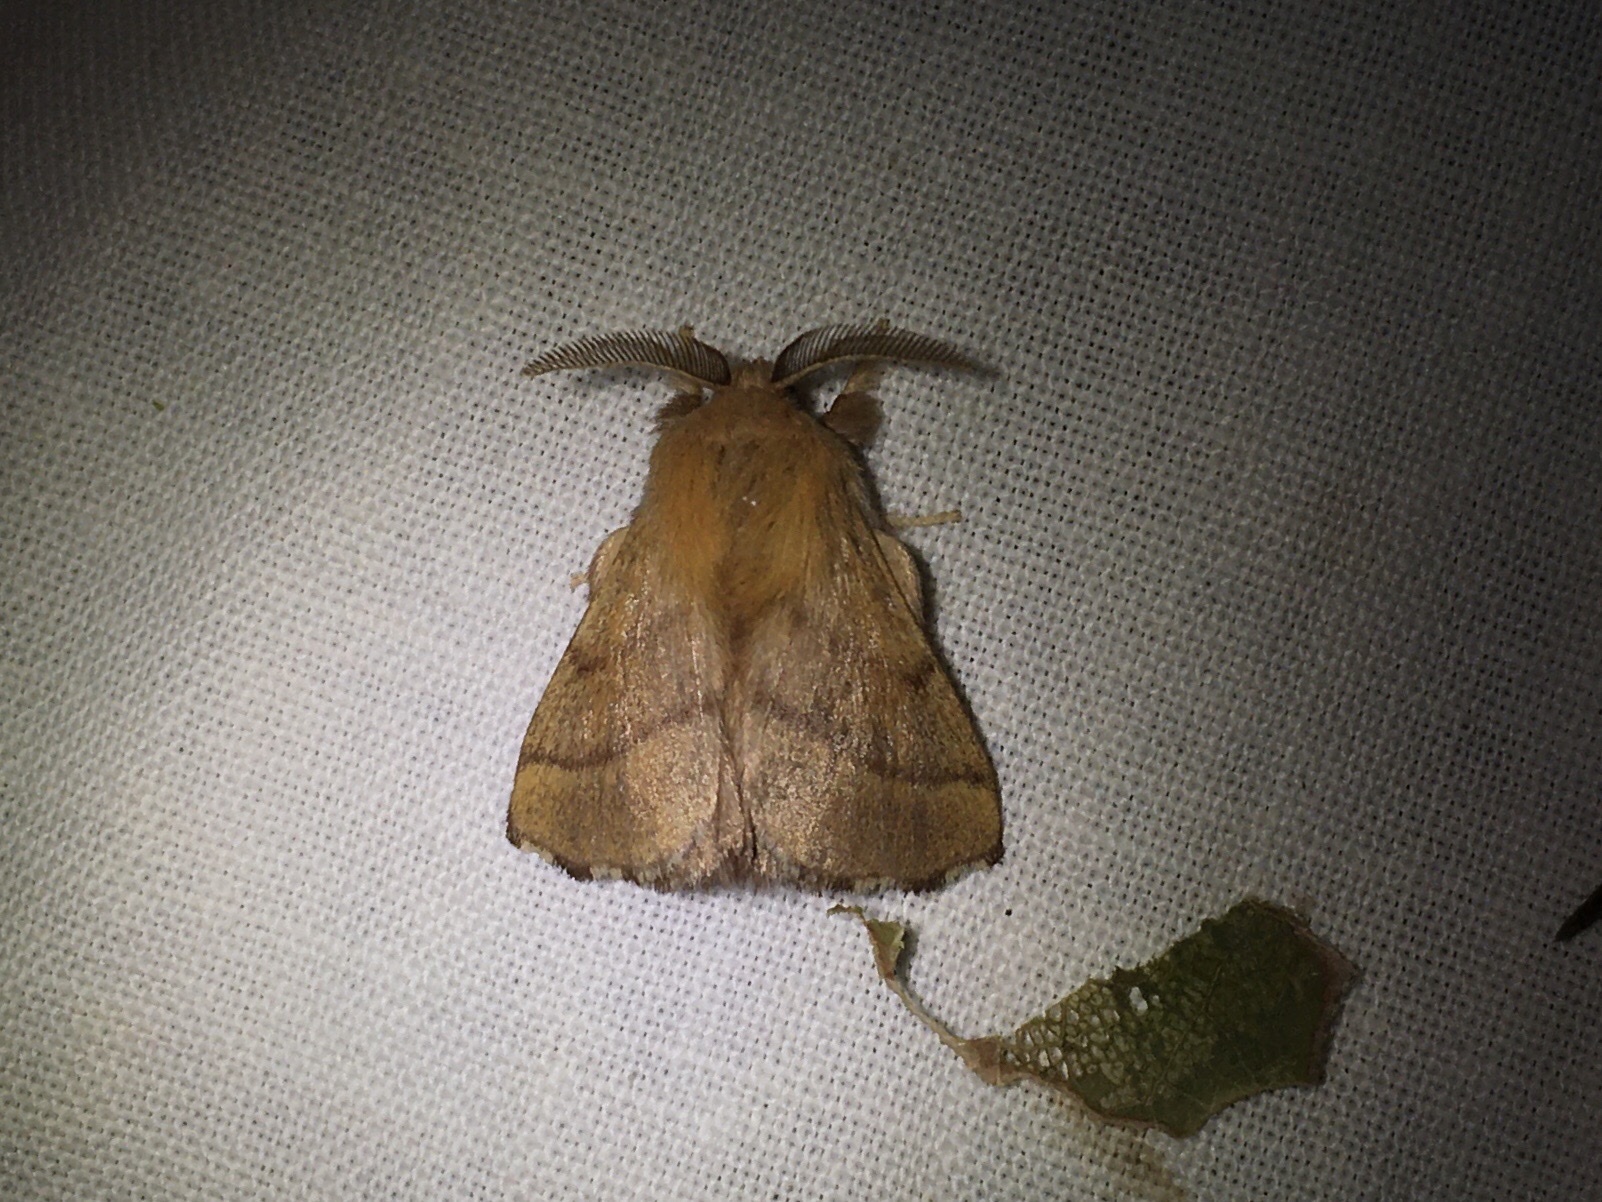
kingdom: Animalia
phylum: Arthropoda
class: Insecta
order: Lepidoptera
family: Lasiocampidae
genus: Malacosoma
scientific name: Malacosoma disstria
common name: Forest tent caterpillar
